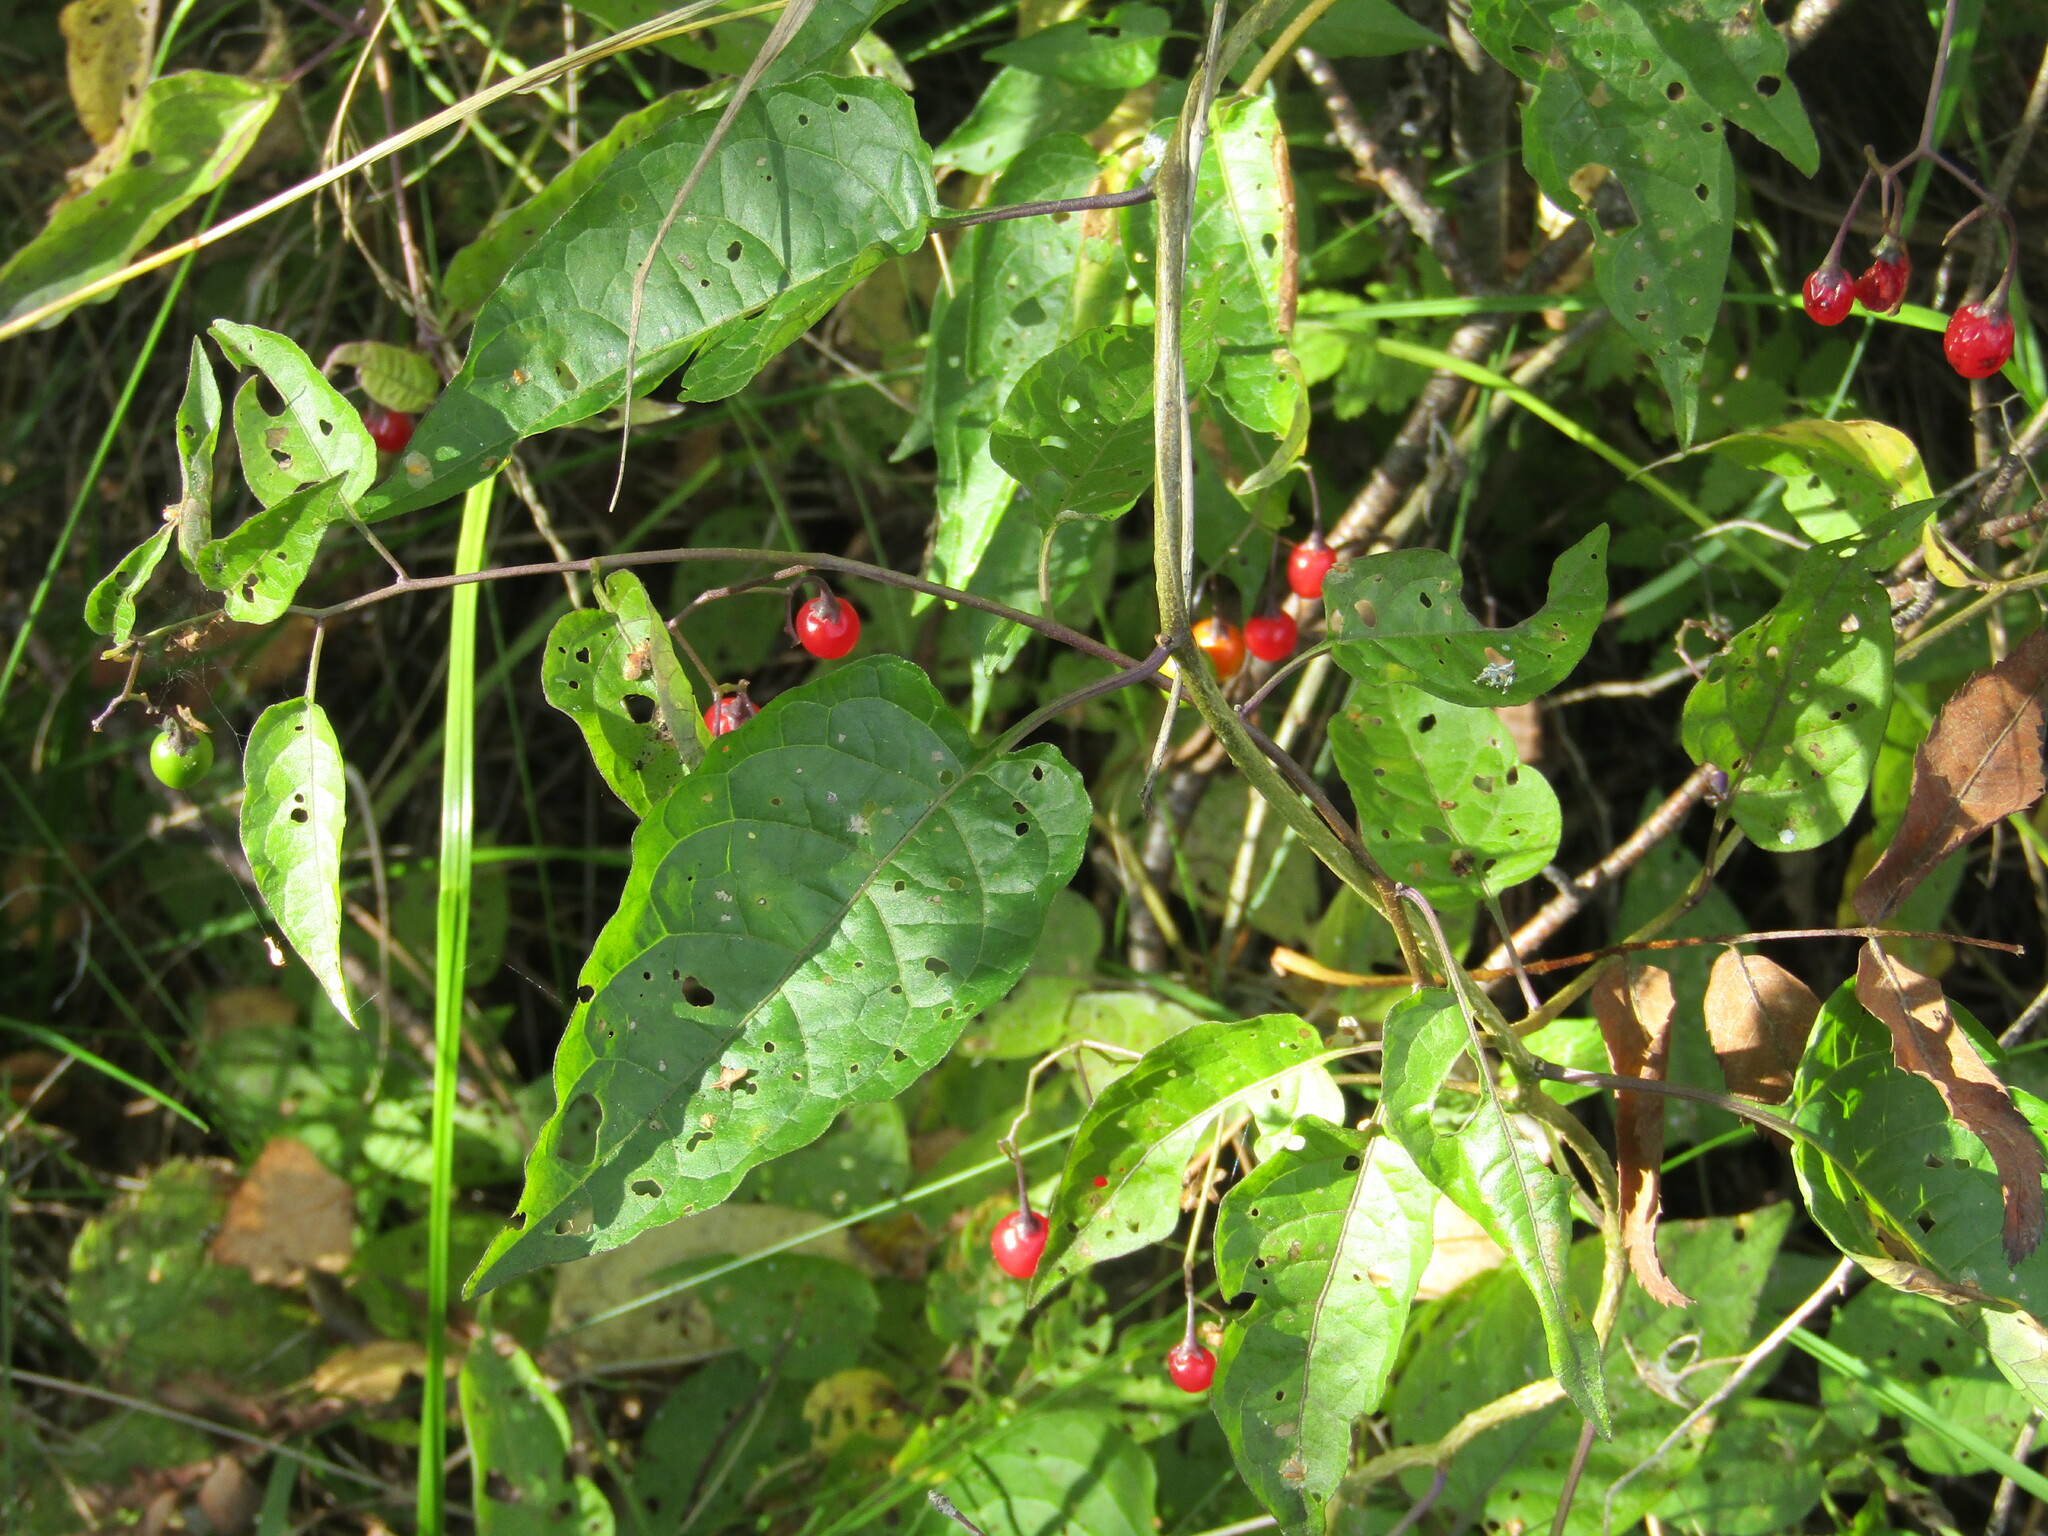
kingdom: Plantae
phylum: Tracheophyta
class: Magnoliopsida
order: Solanales
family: Solanaceae
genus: Solanum
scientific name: Solanum dulcamara
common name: Climbing nightshade
